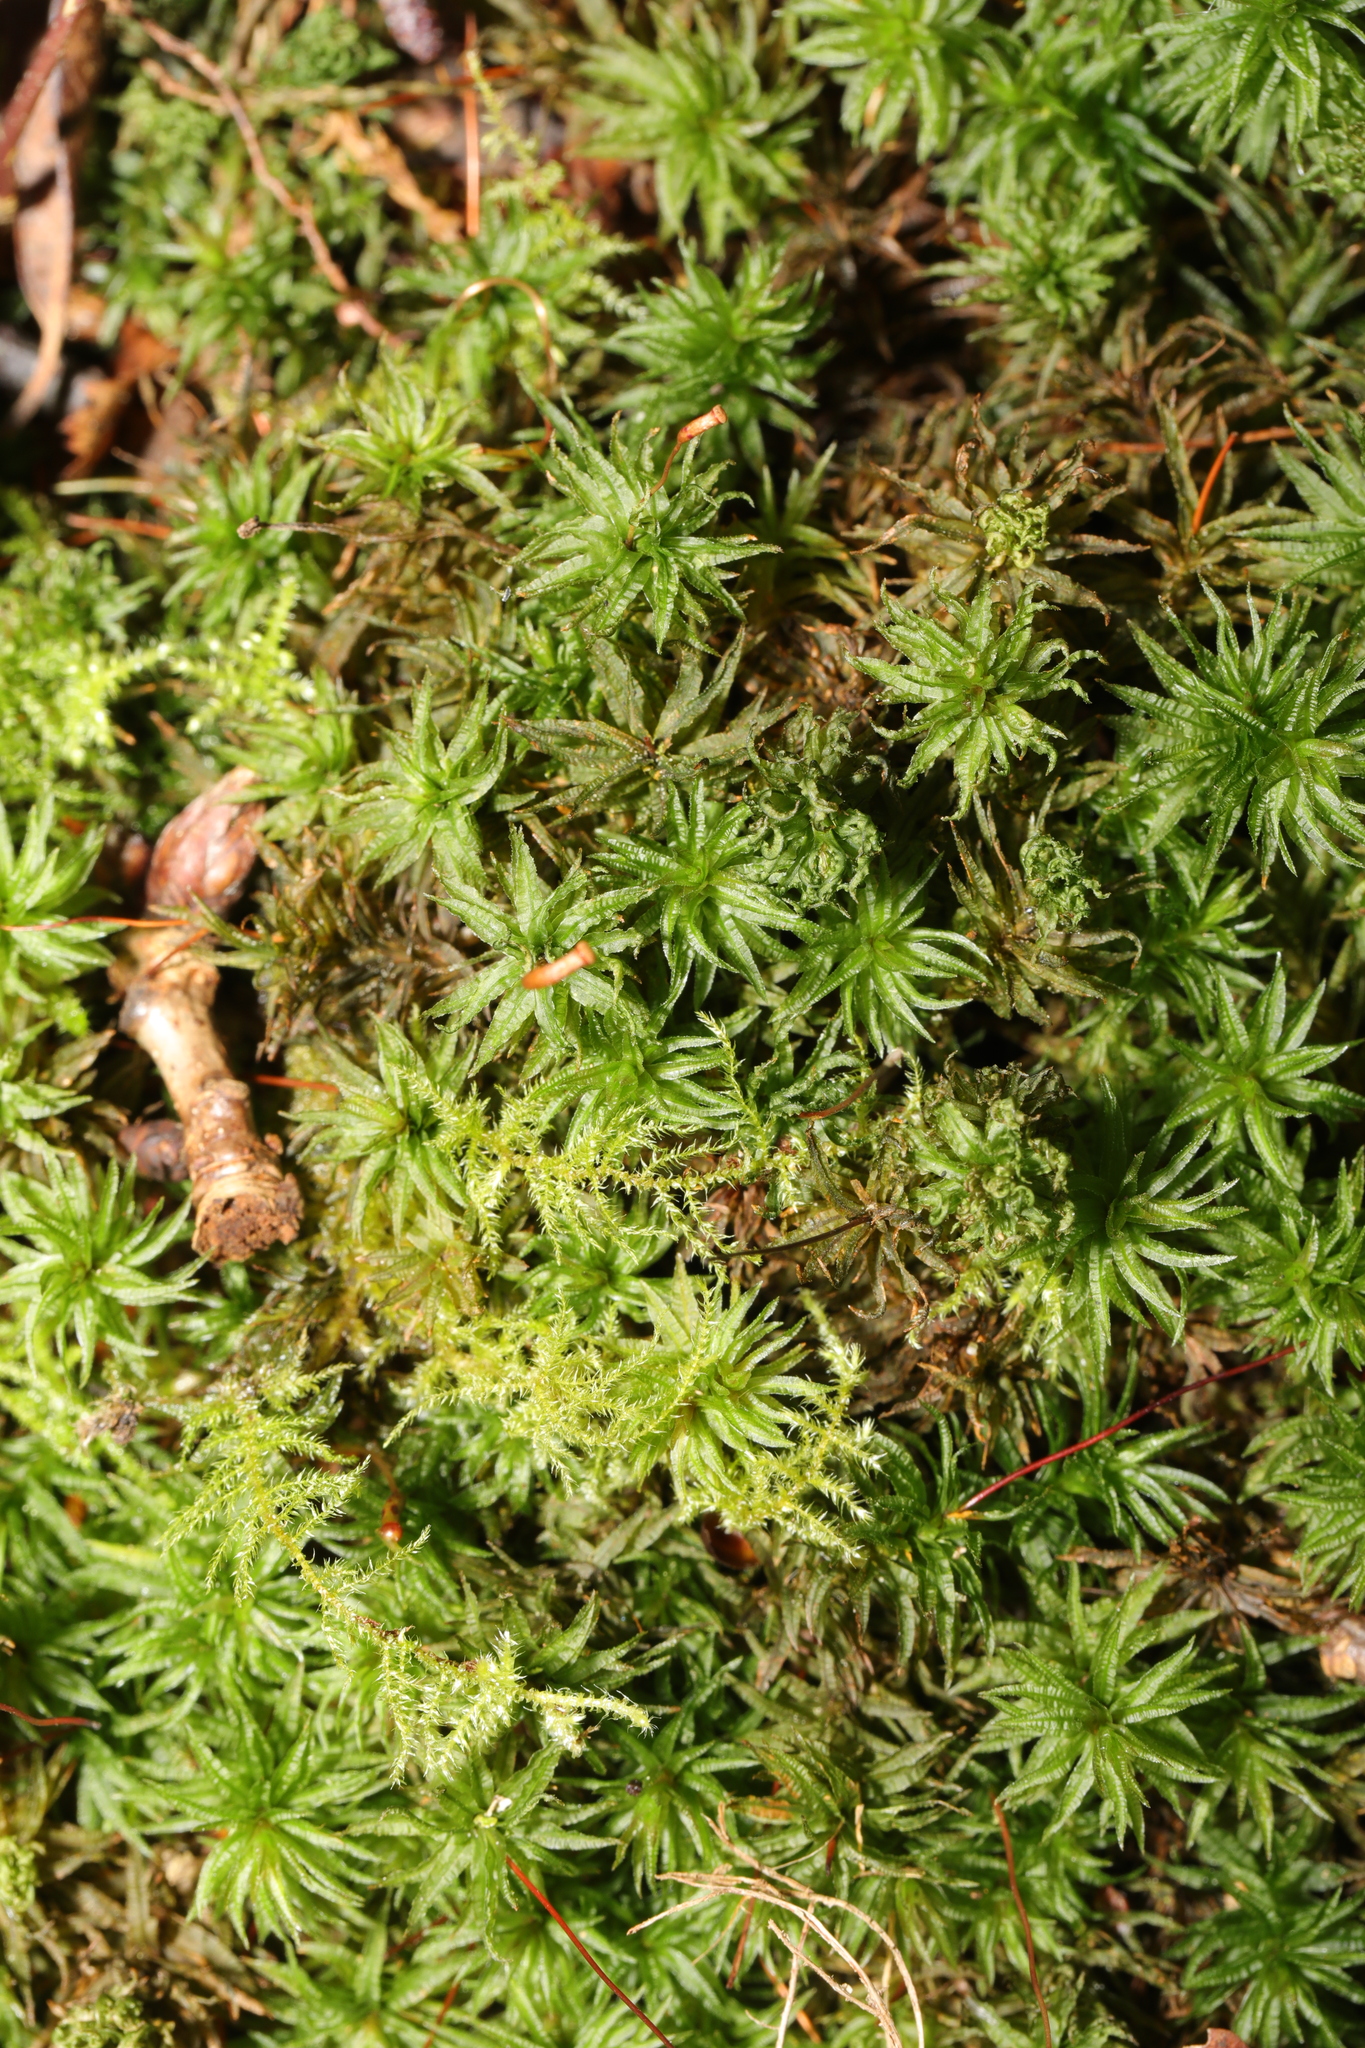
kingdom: Plantae
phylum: Bryophyta
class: Polytrichopsida
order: Polytrichales
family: Polytrichaceae
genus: Atrichum
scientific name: Atrichum undulatum
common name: Common smoothcap
